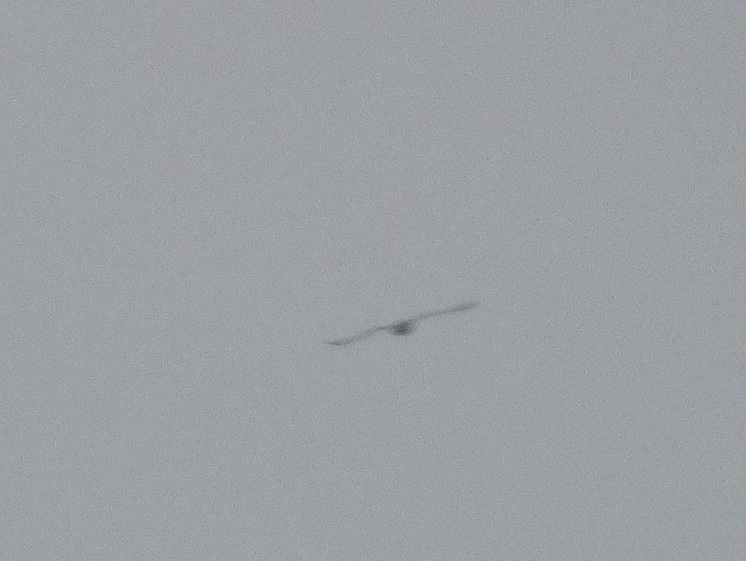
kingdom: Animalia
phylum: Chordata
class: Aves
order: Gaviiformes
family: Gaviidae
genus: Gavia
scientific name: Gavia immer
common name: Common loon
